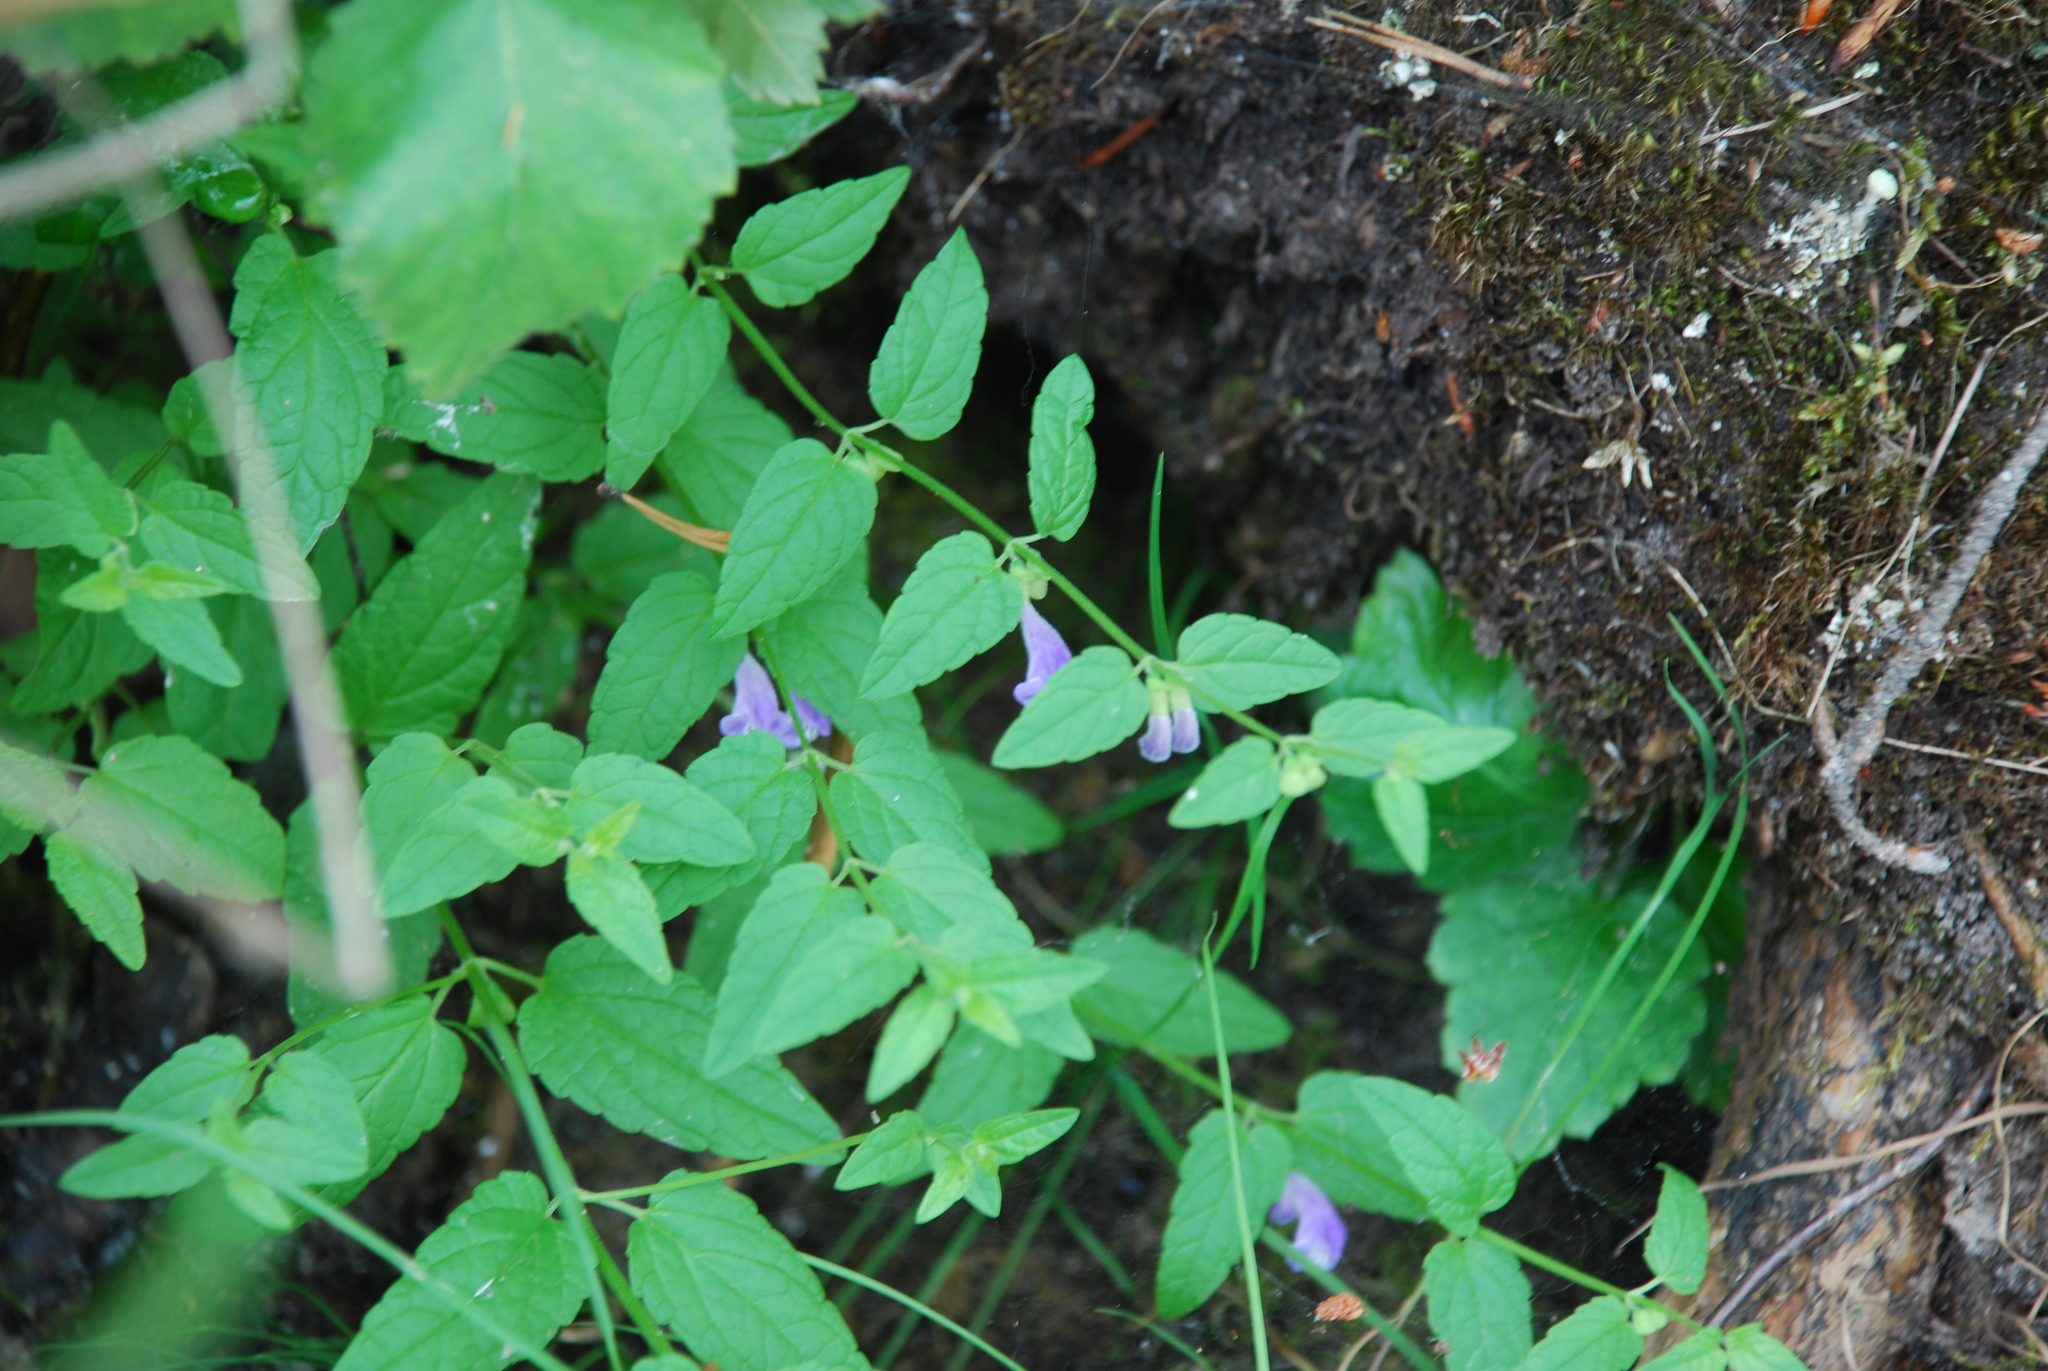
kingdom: Plantae
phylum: Tracheophyta
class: Magnoliopsida
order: Lamiales
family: Lamiaceae
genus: Scutellaria
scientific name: Scutellaria galericulata
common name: Skullcap
